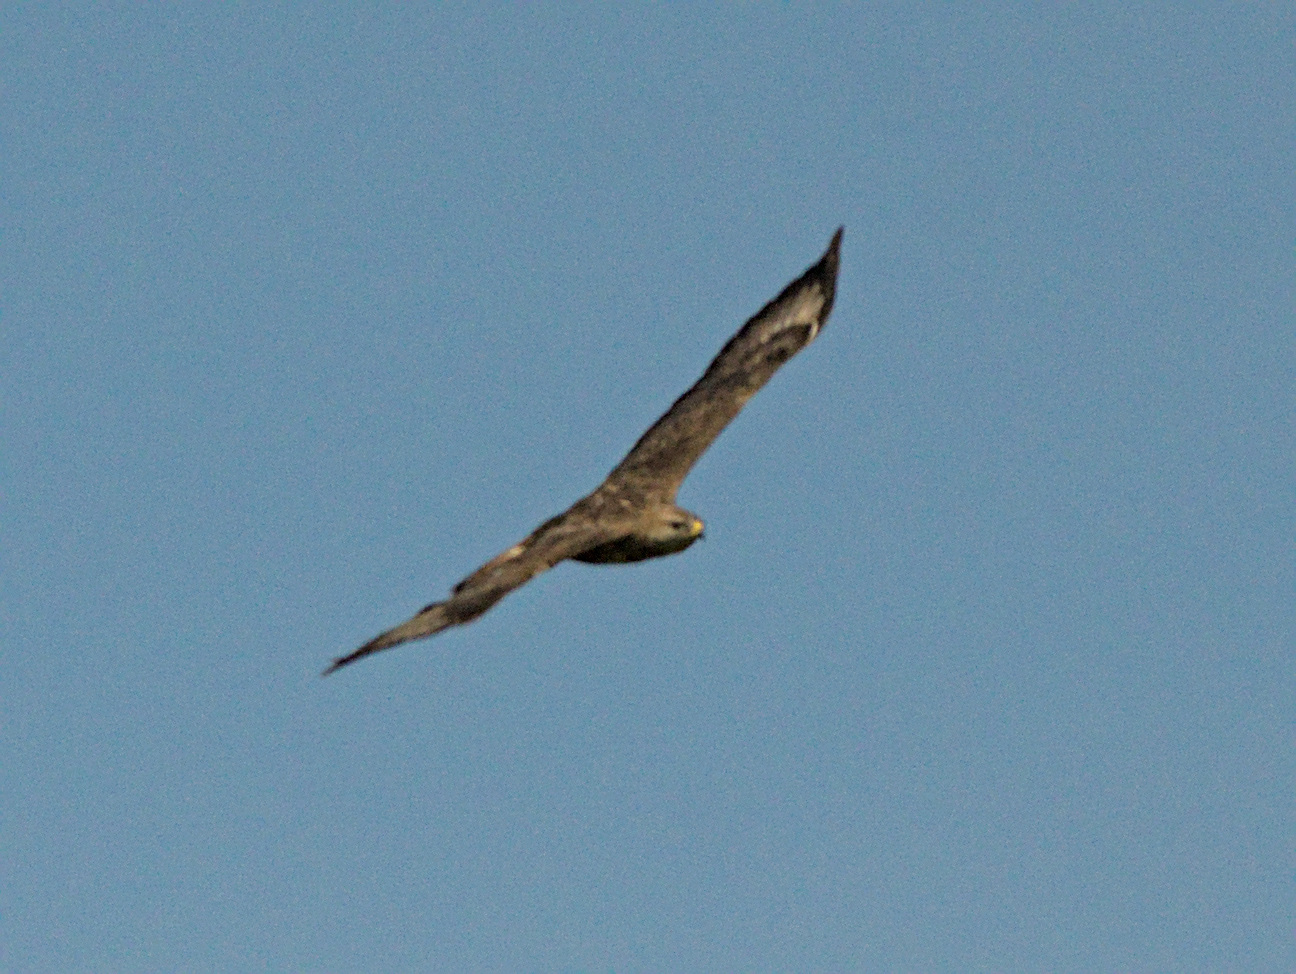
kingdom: Animalia
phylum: Chordata
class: Aves
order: Accipitriformes
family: Accipitridae
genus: Buteo
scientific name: Buteo buteo
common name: Common buzzard
